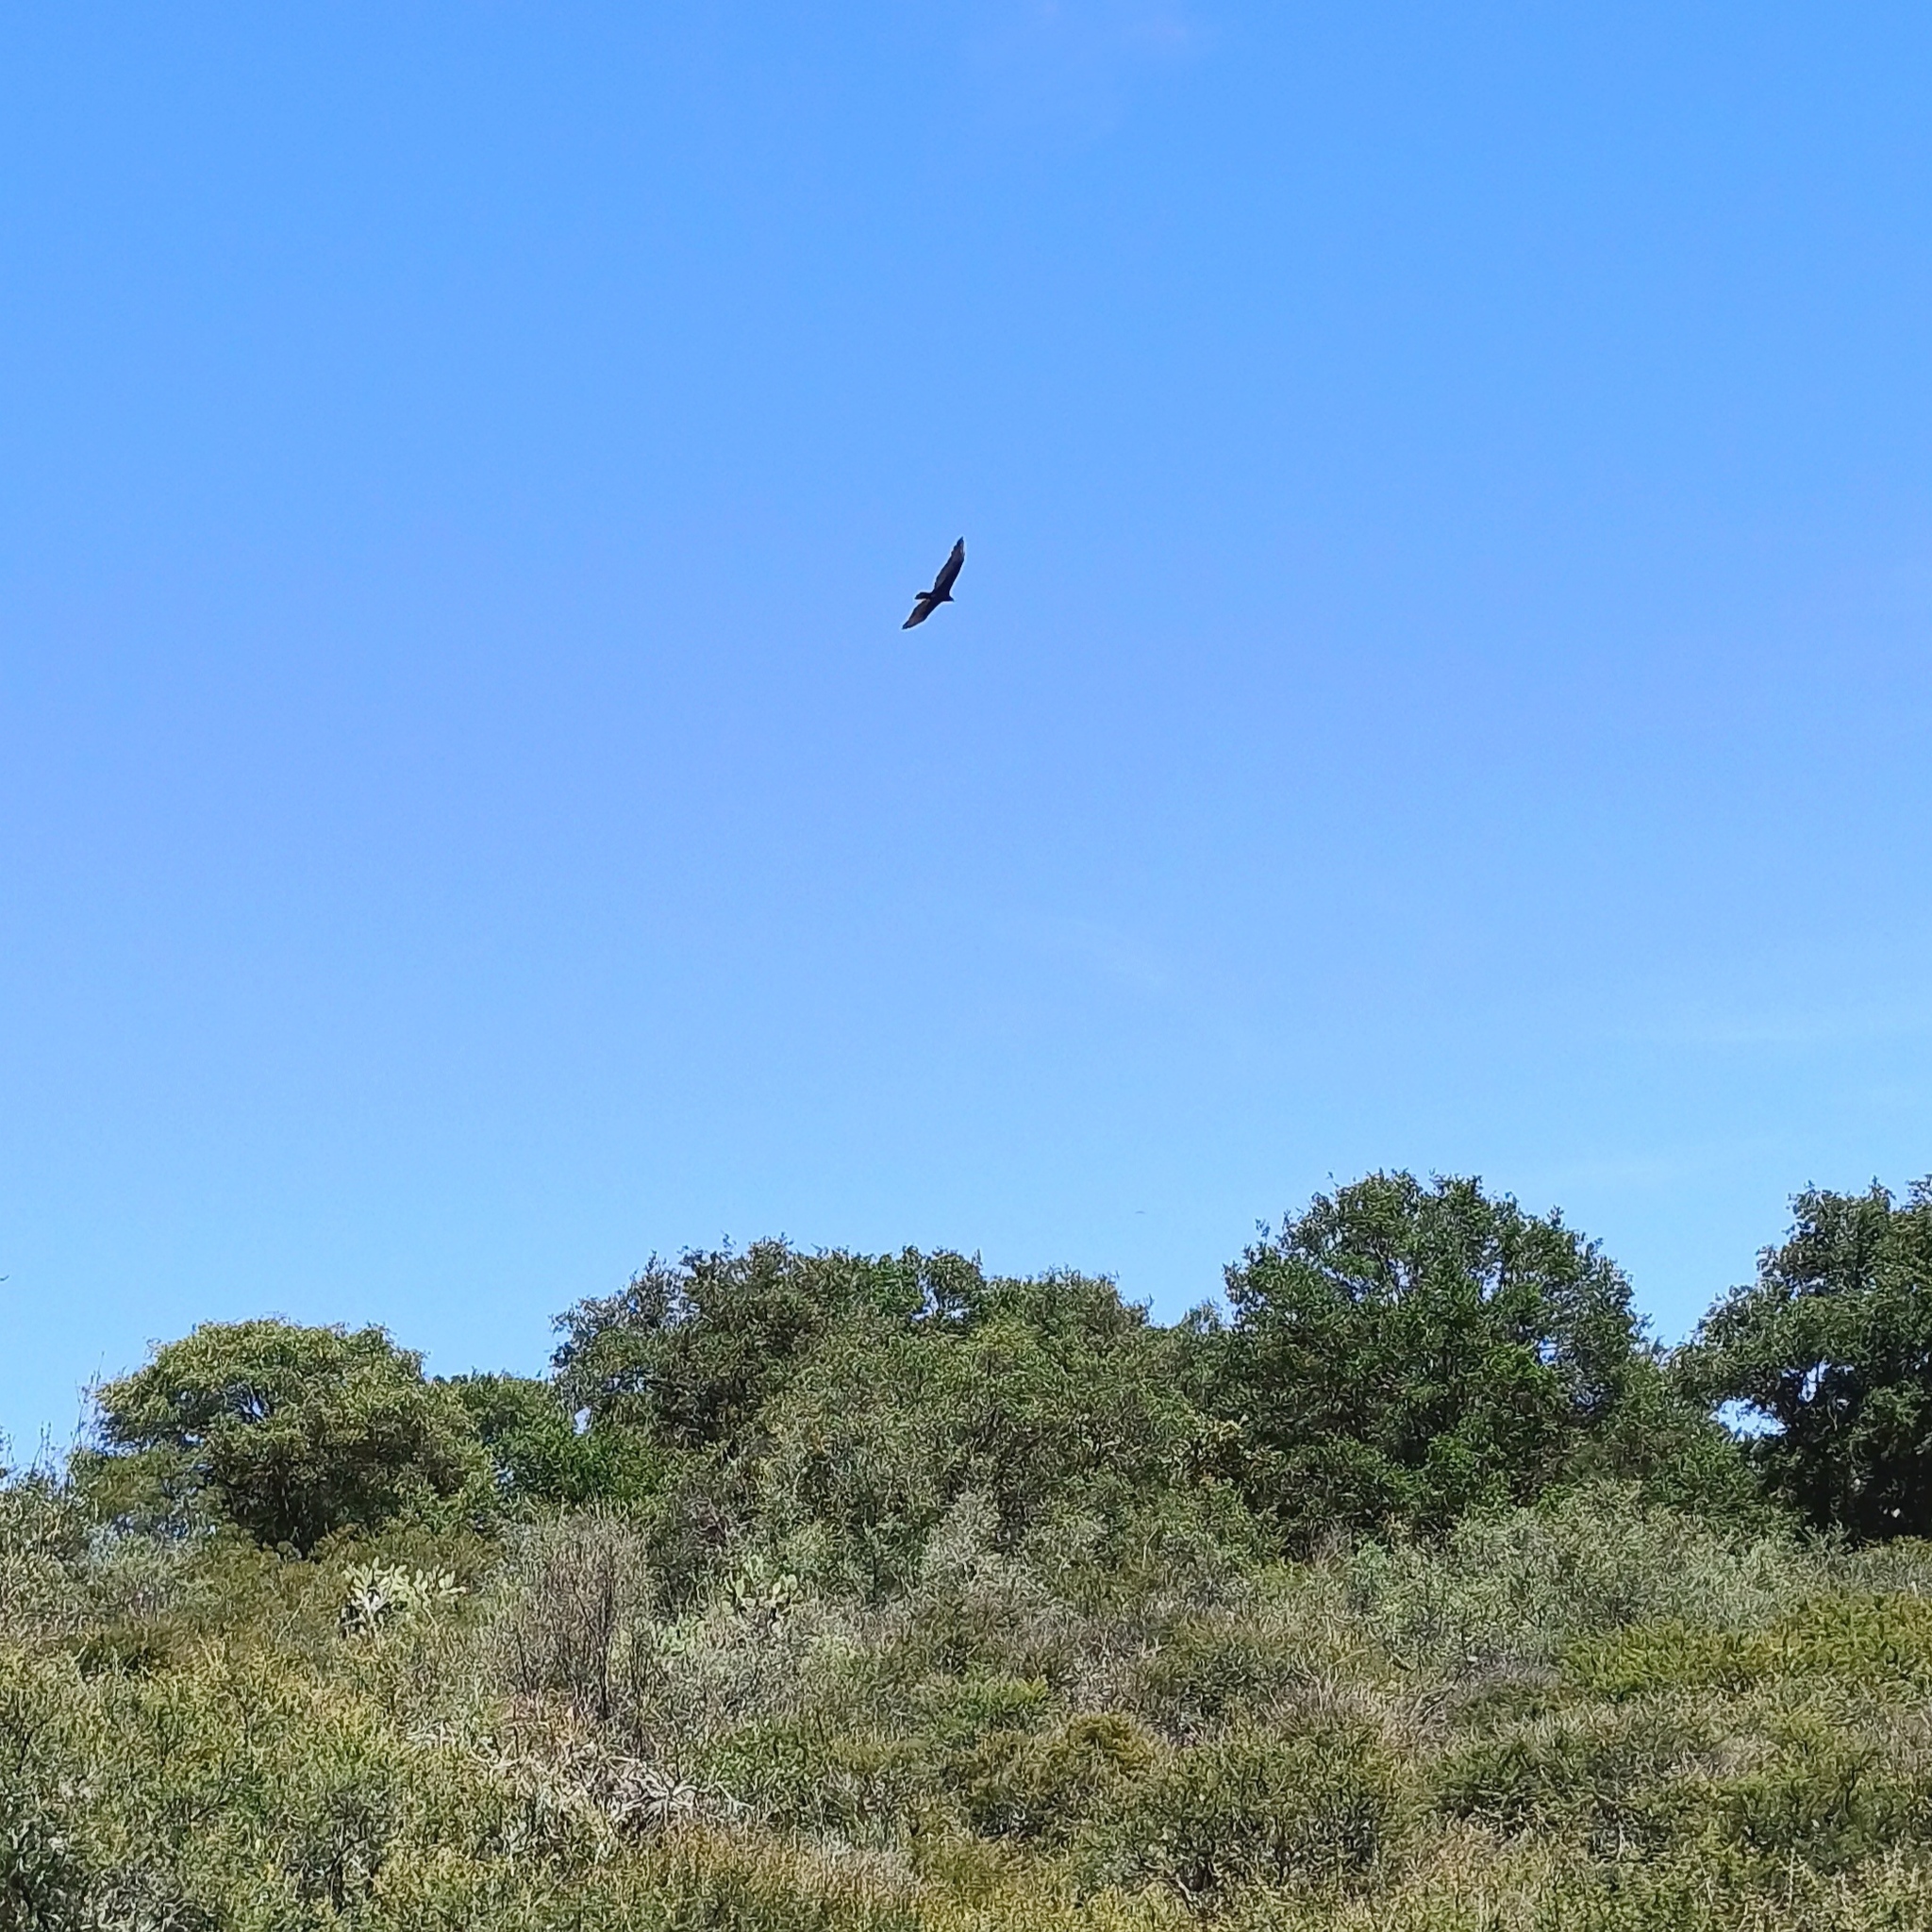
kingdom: Animalia
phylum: Chordata
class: Aves
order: Accipitriformes
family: Cathartidae
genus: Cathartes
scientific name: Cathartes aura
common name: Turkey vulture
